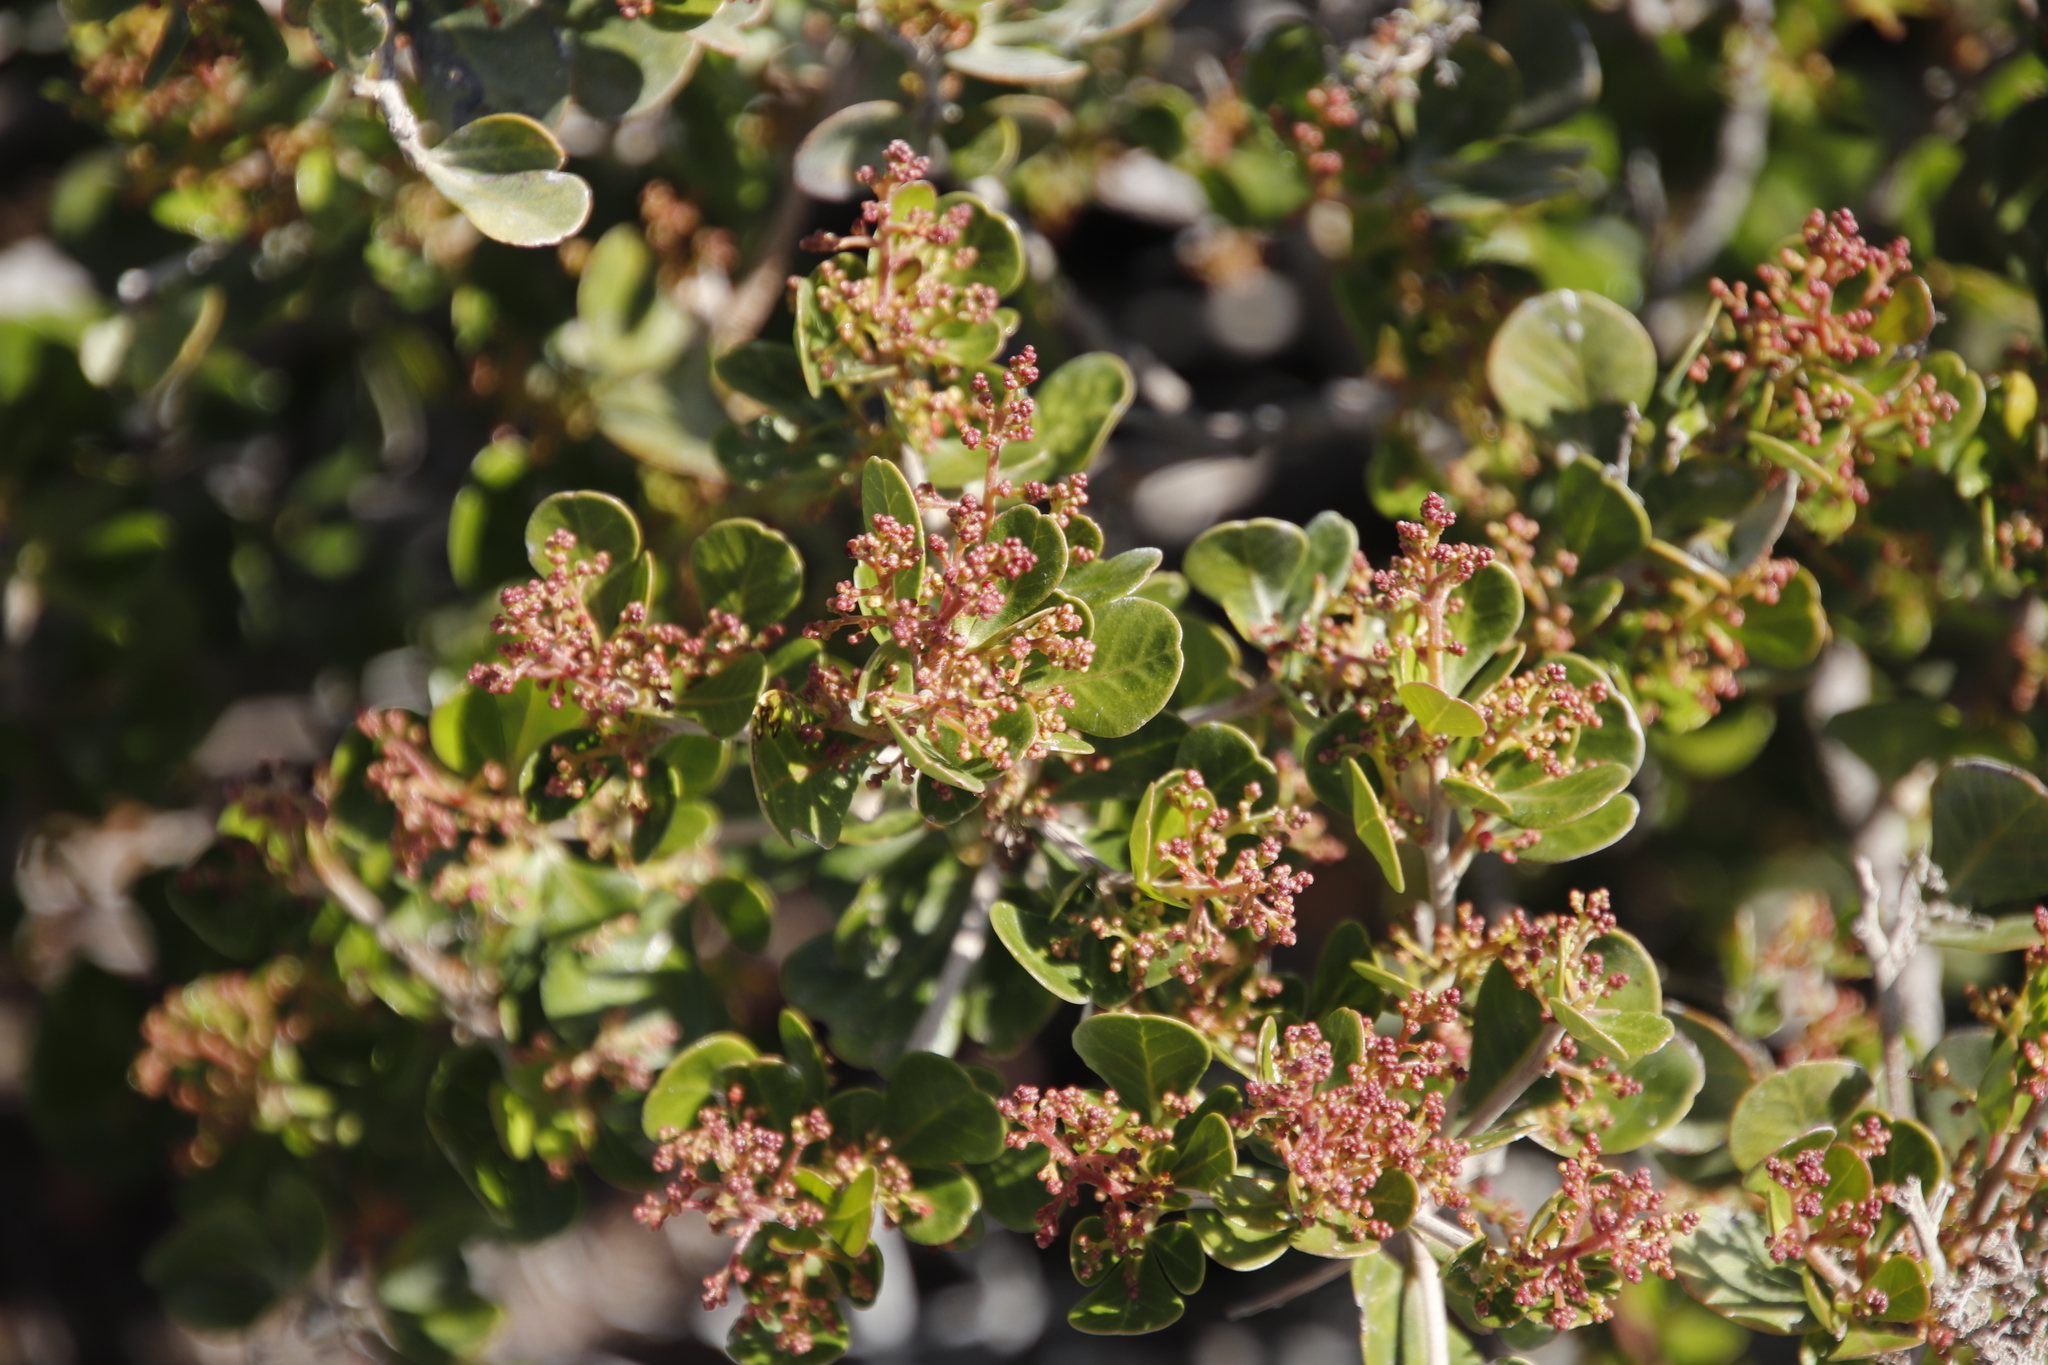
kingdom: Plantae
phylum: Tracheophyta
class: Magnoliopsida
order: Sapindales
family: Anacardiaceae
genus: Searsia
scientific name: Searsia lucida
